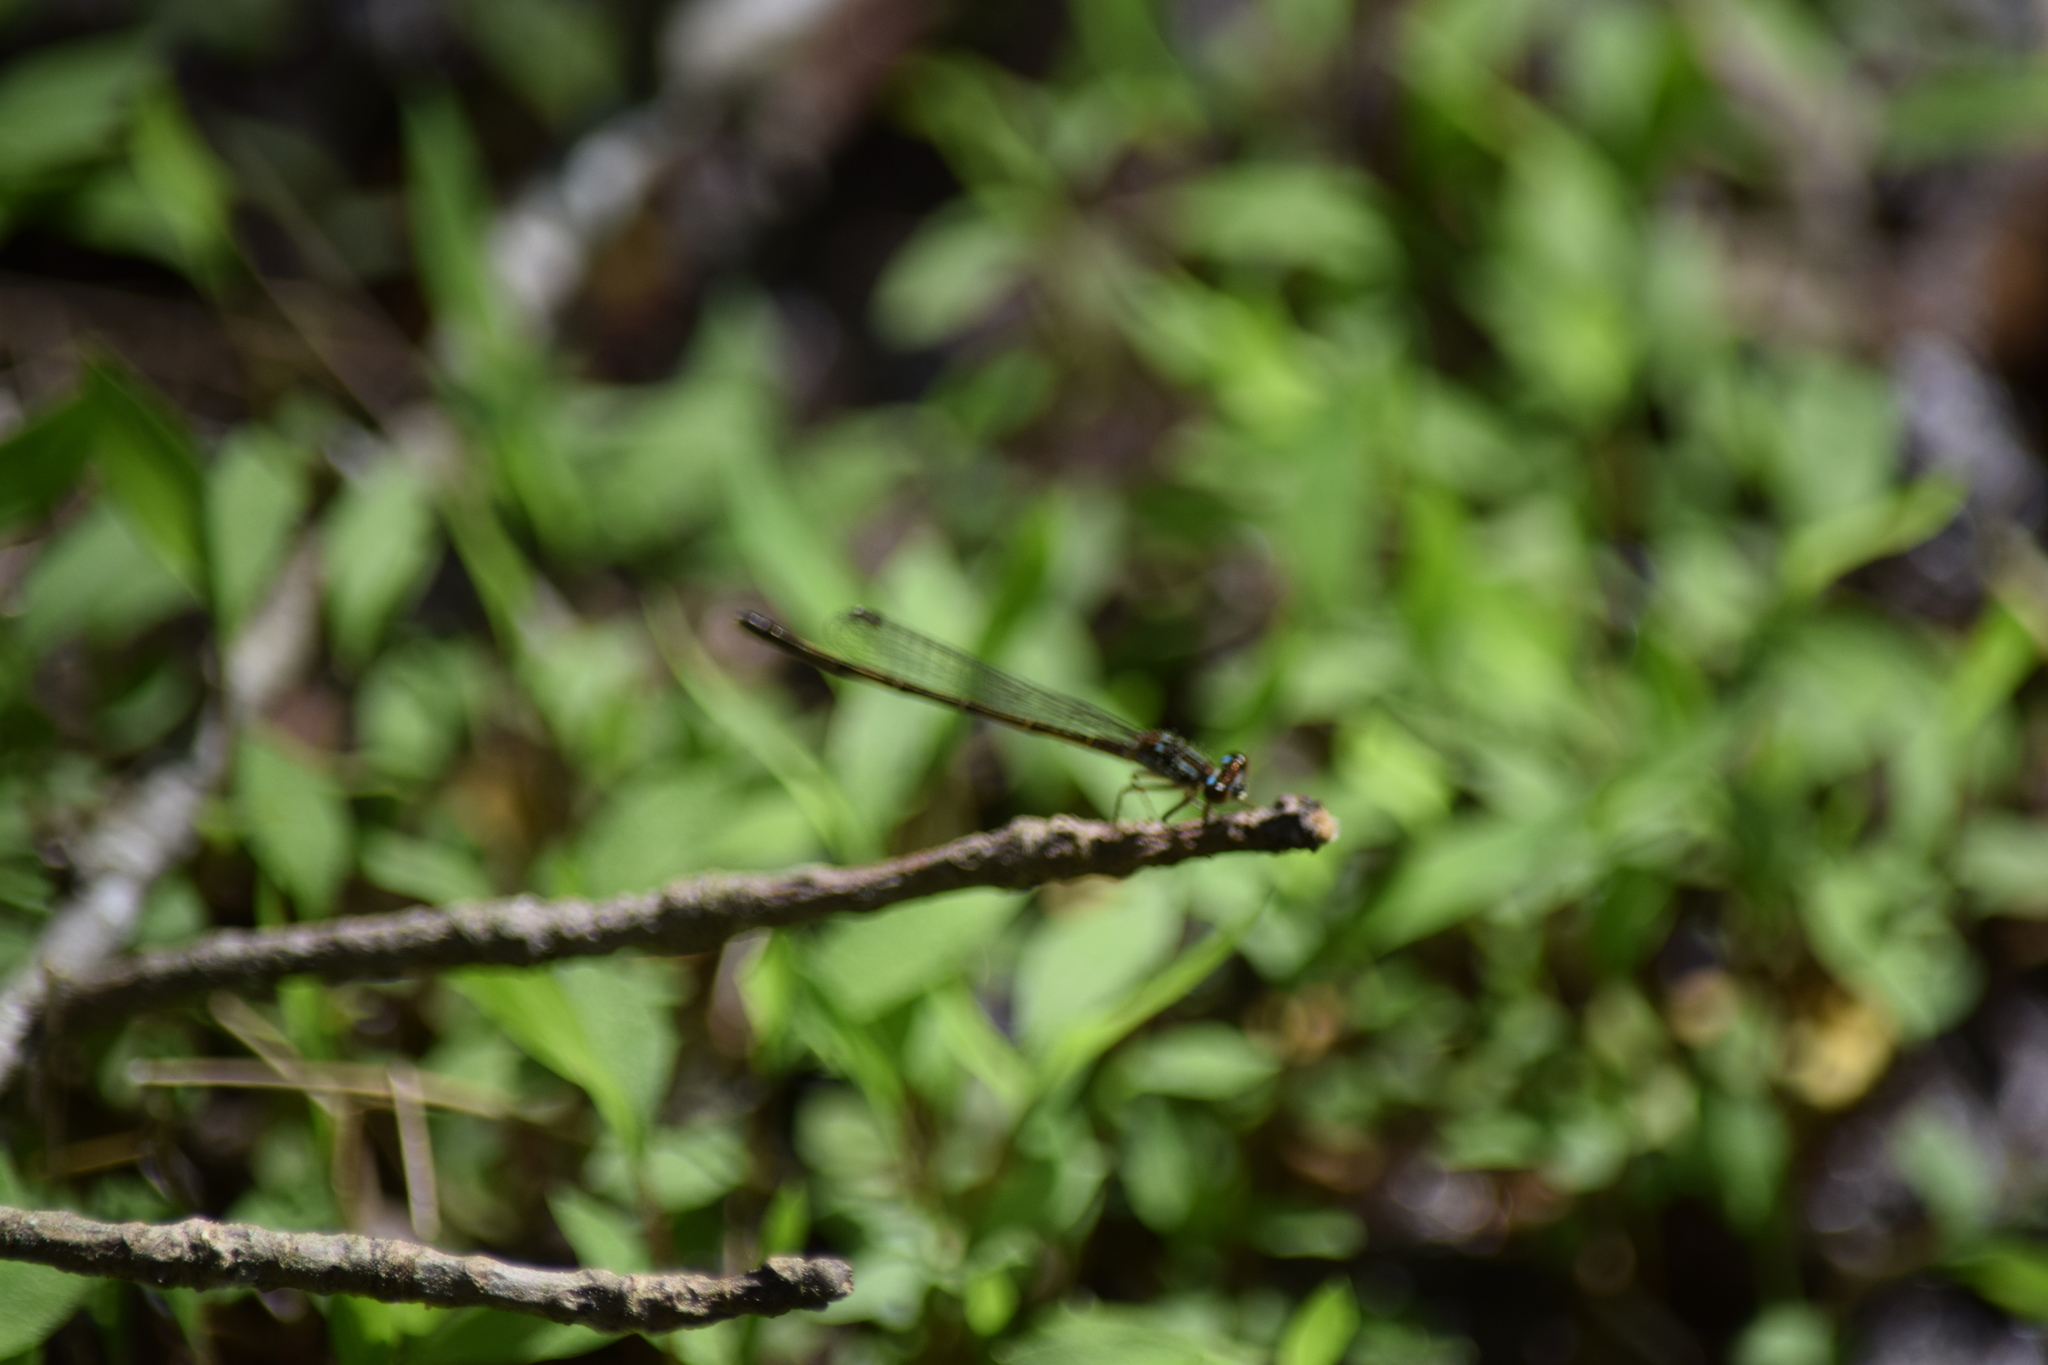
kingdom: Animalia
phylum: Arthropoda
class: Insecta
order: Odonata
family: Coenagrionidae
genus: Ischnura
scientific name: Ischnura posita
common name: Fragile forktail
